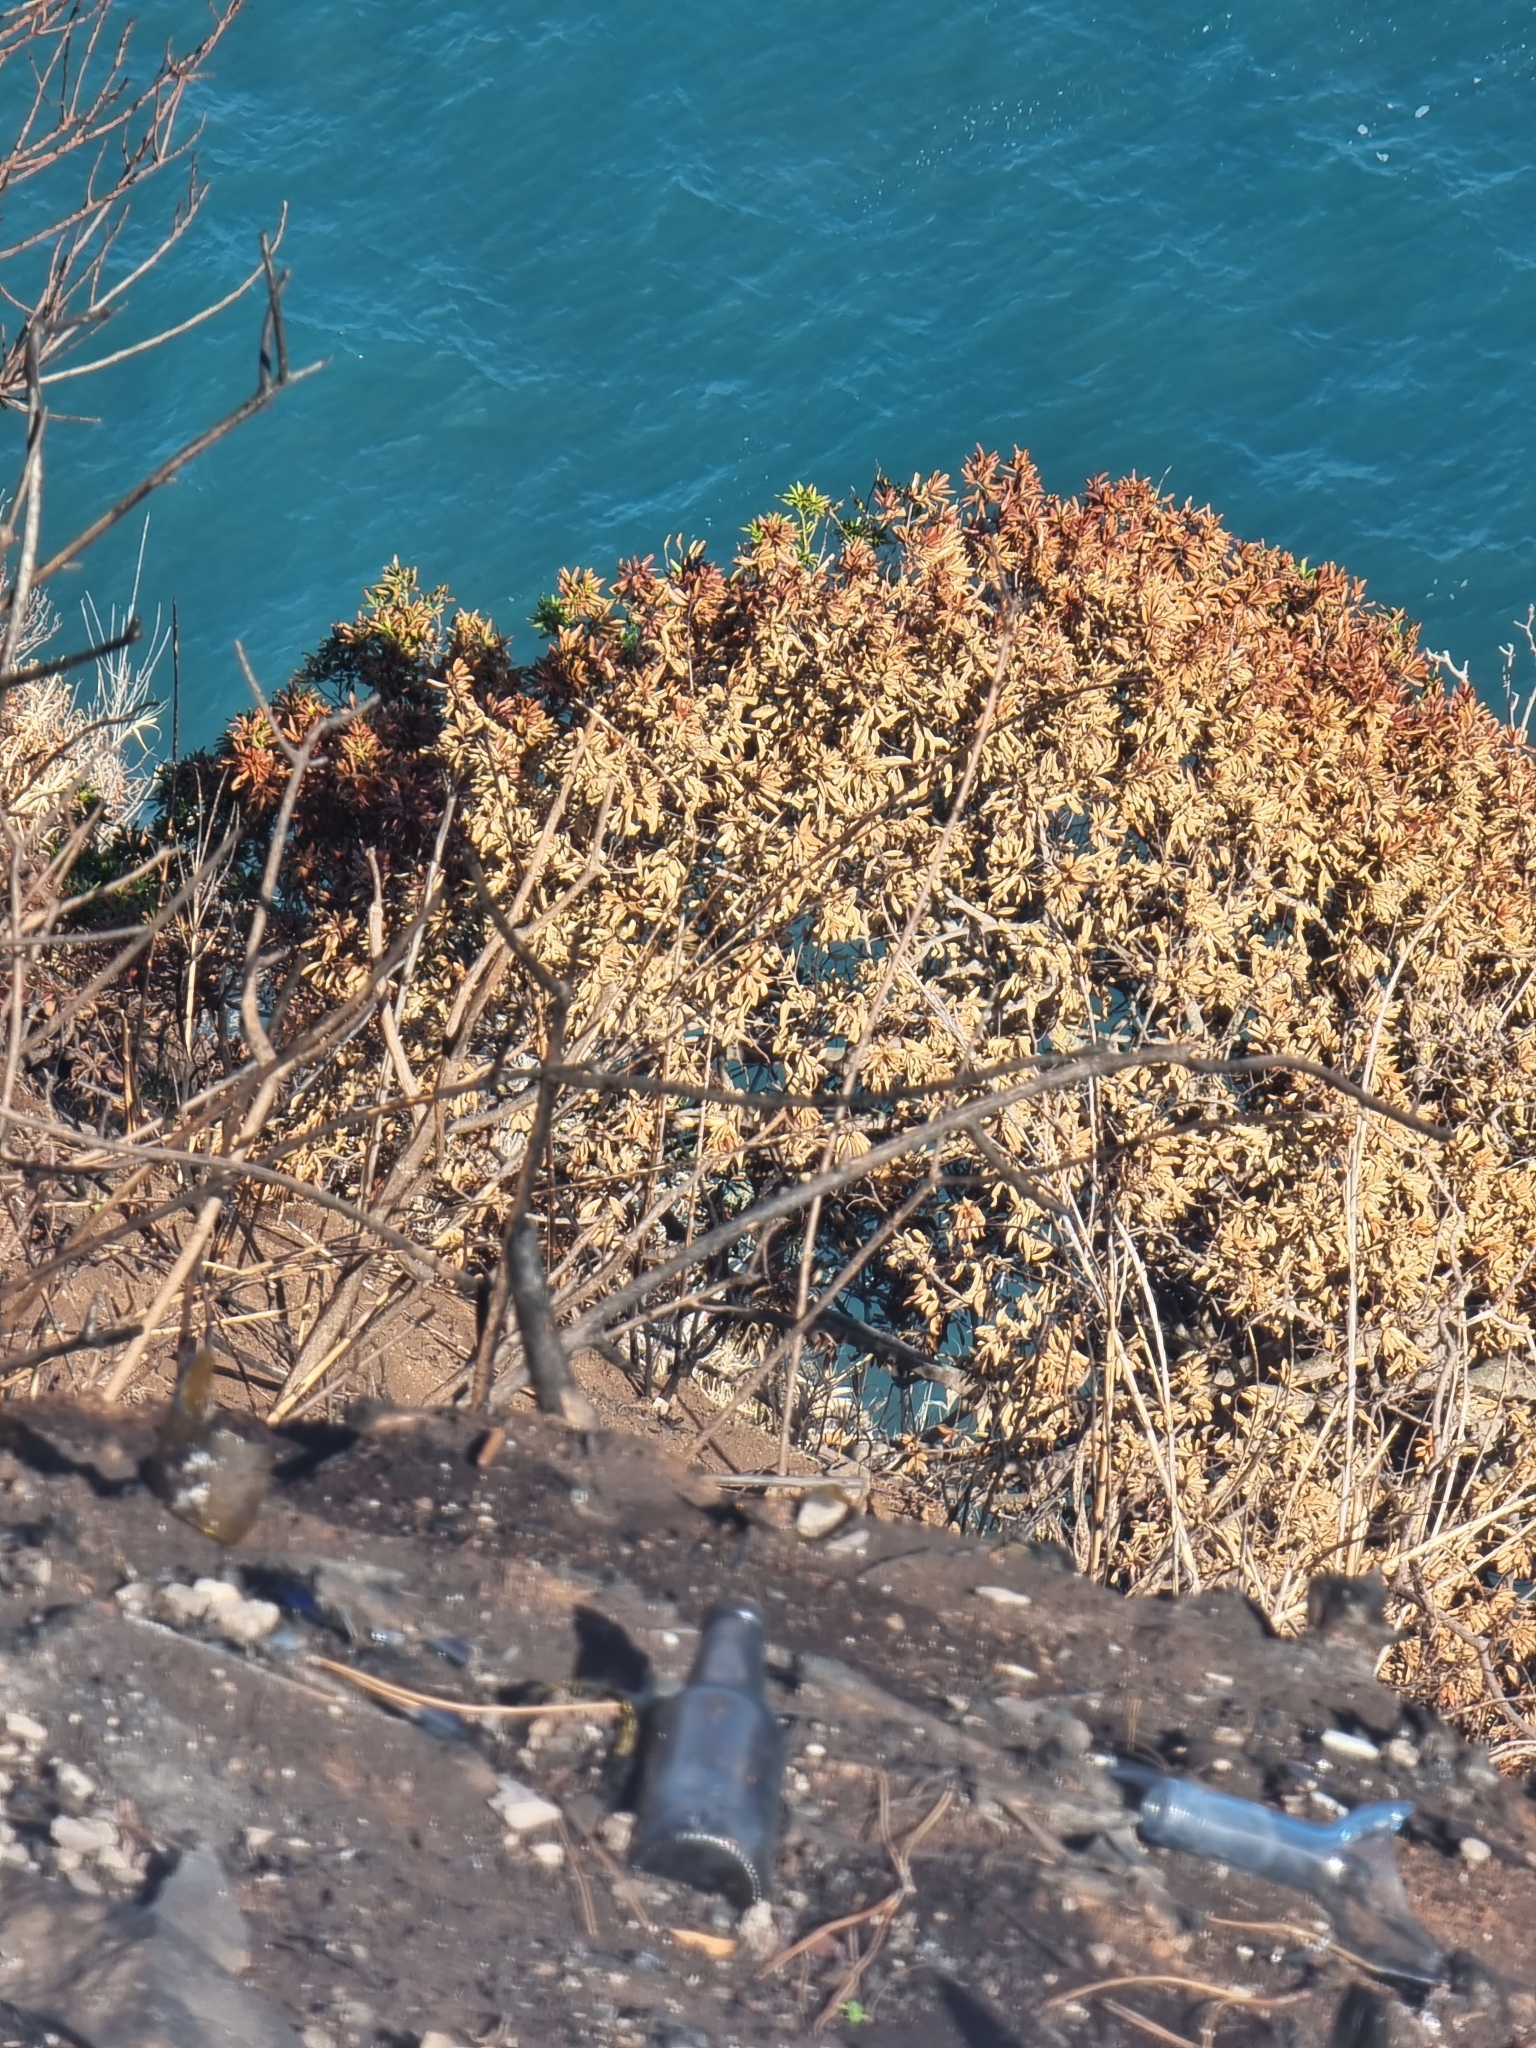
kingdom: Plantae
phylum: Tracheophyta
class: Magnoliopsida
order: Laurales
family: Lauraceae
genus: Apollonias
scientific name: Apollonias barbujana
